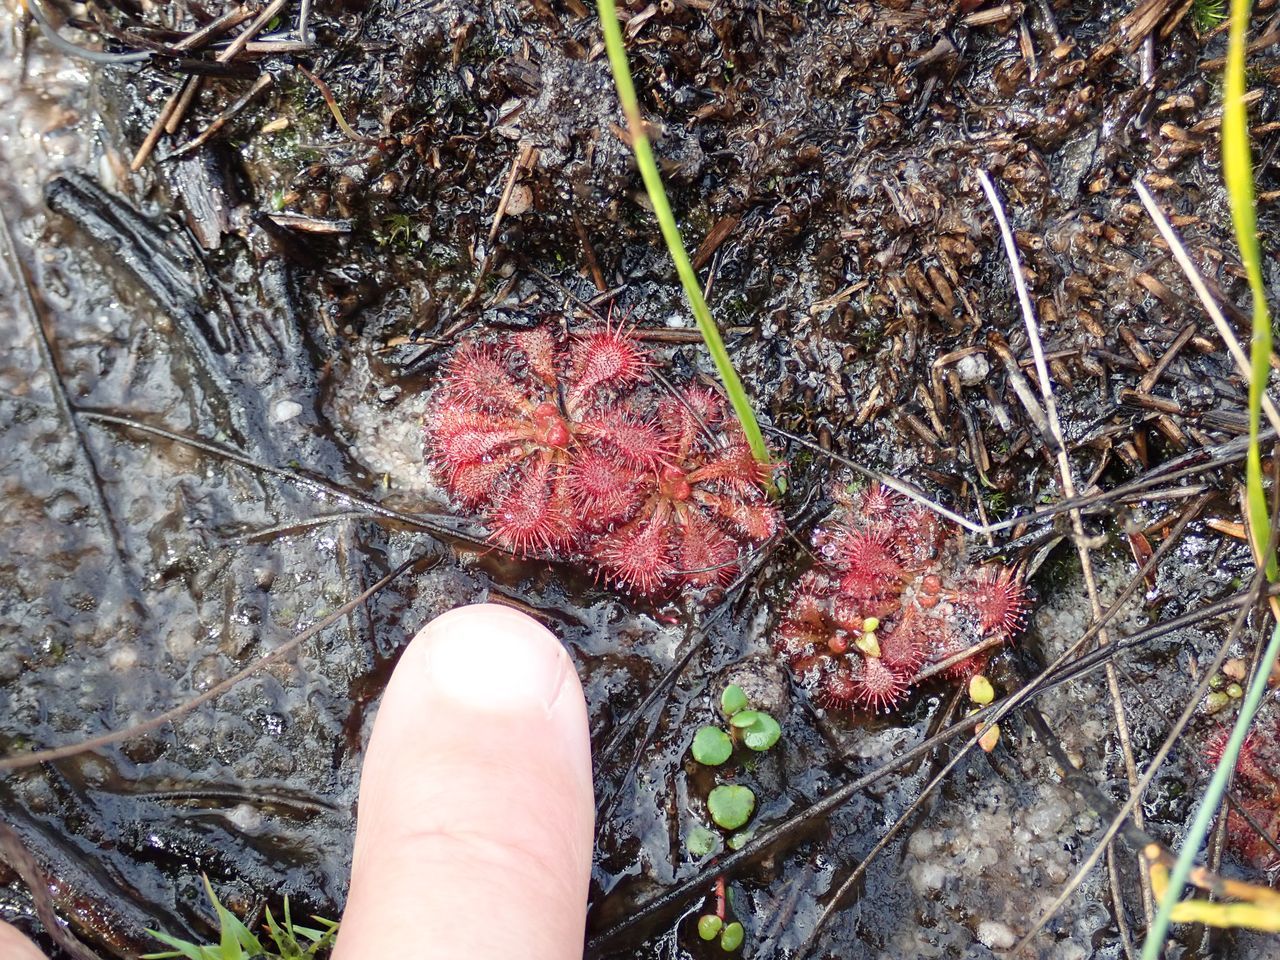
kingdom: Plantae
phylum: Tracheophyta
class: Magnoliopsida
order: Caryophyllales
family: Droseraceae
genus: Drosera
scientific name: Drosera spatulata
